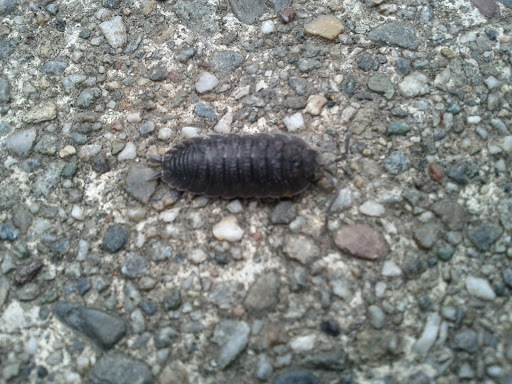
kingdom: Animalia
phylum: Arthropoda
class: Malacostraca
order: Isopoda
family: Porcellionidae
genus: Porcellio
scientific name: Porcellio scaber
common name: Common rough woodlouse
